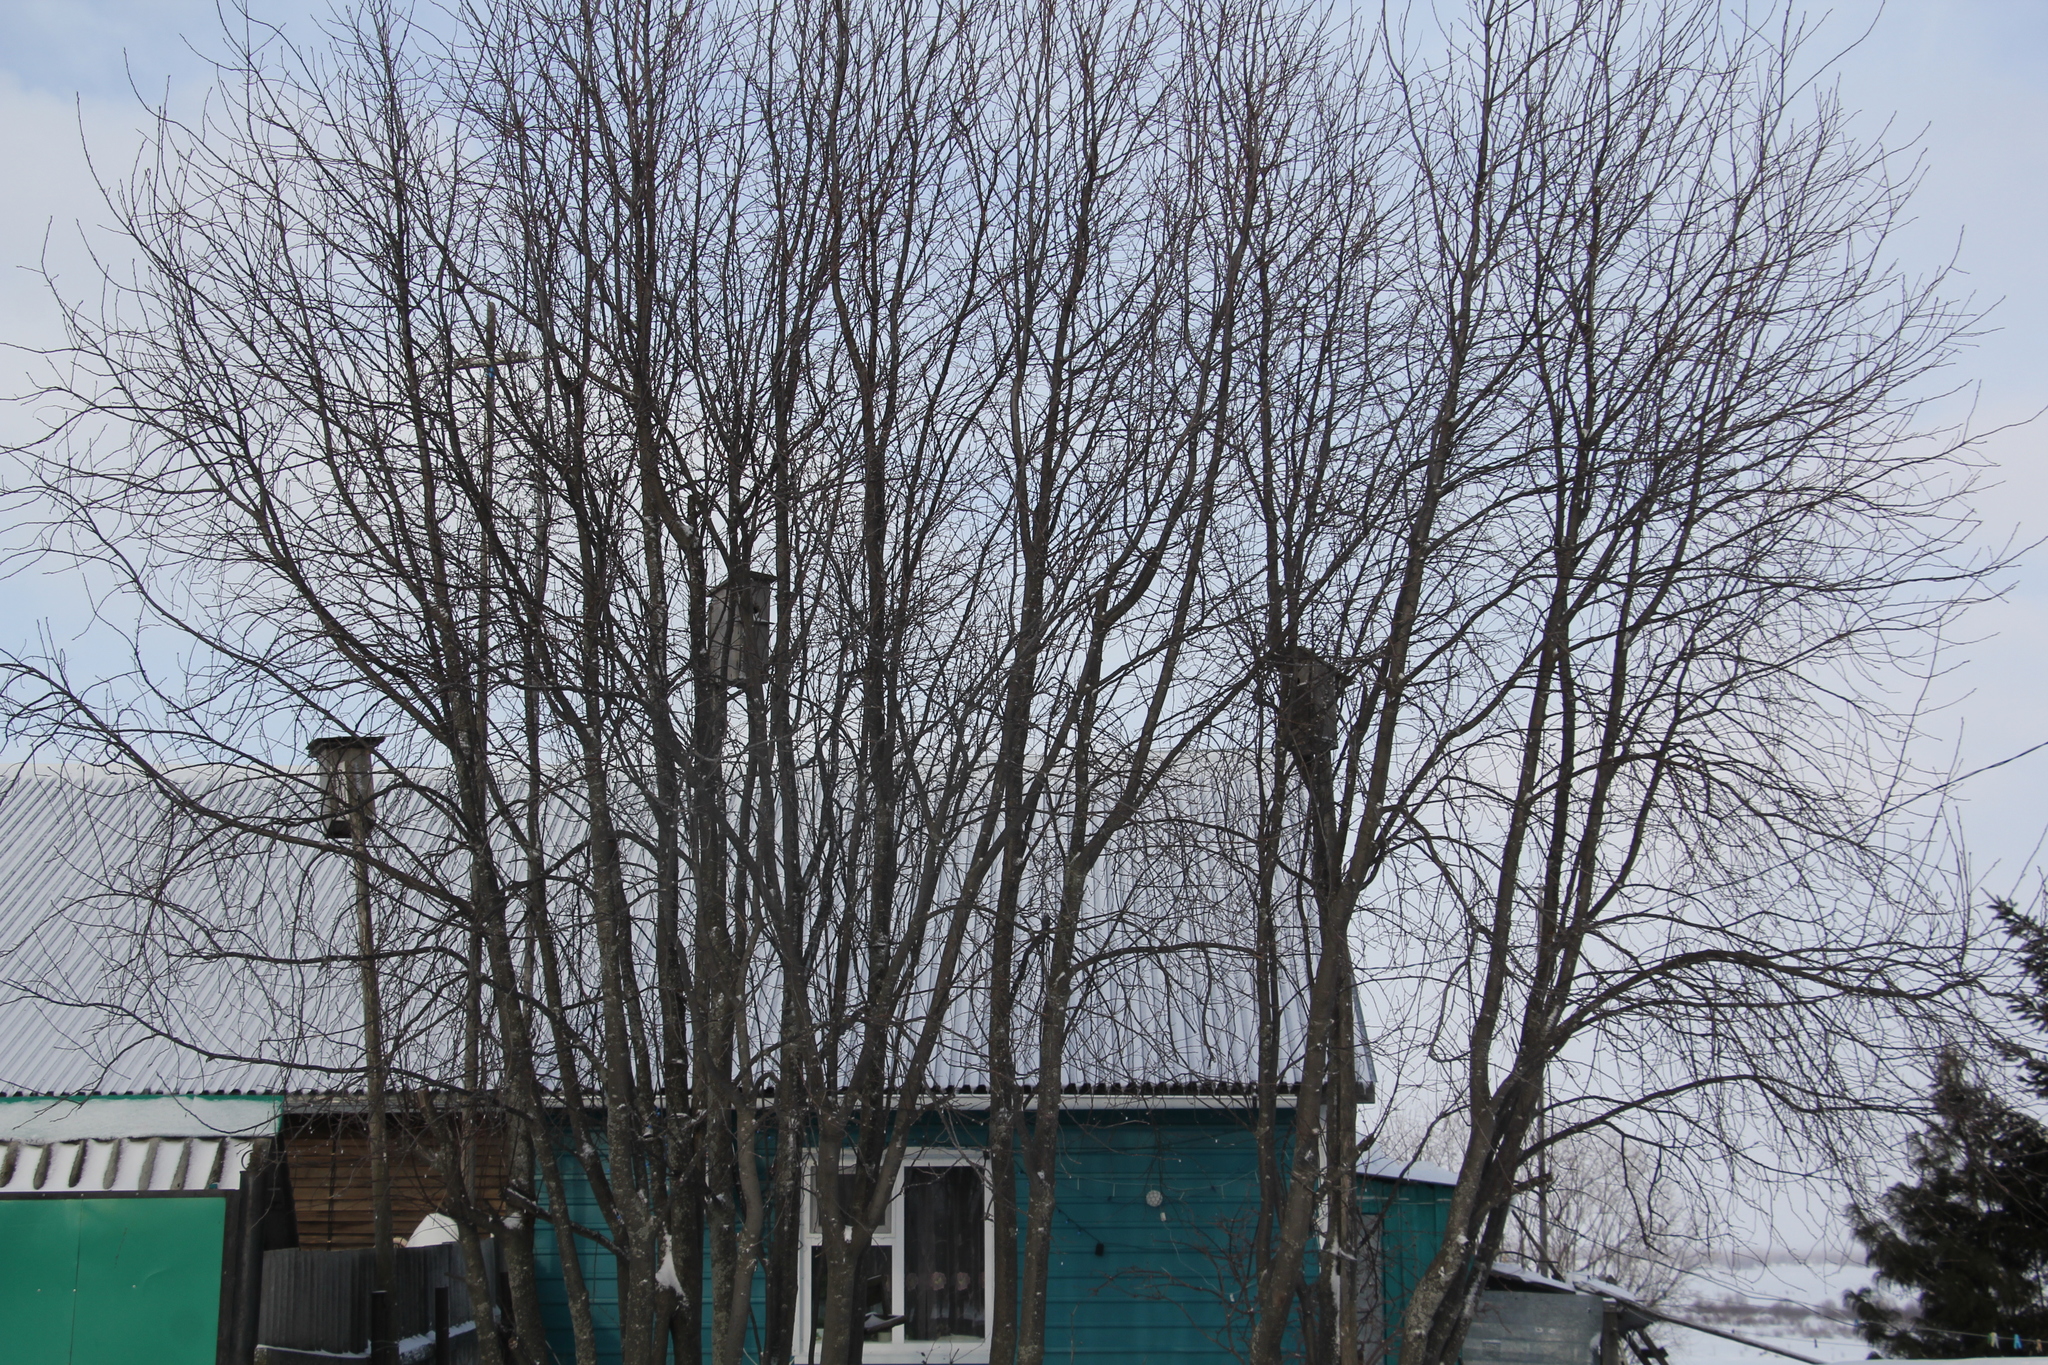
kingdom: Plantae
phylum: Tracheophyta
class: Magnoliopsida
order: Rosales
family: Rosaceae
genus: Prunus
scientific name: Prunus padus
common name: Bird cherry
